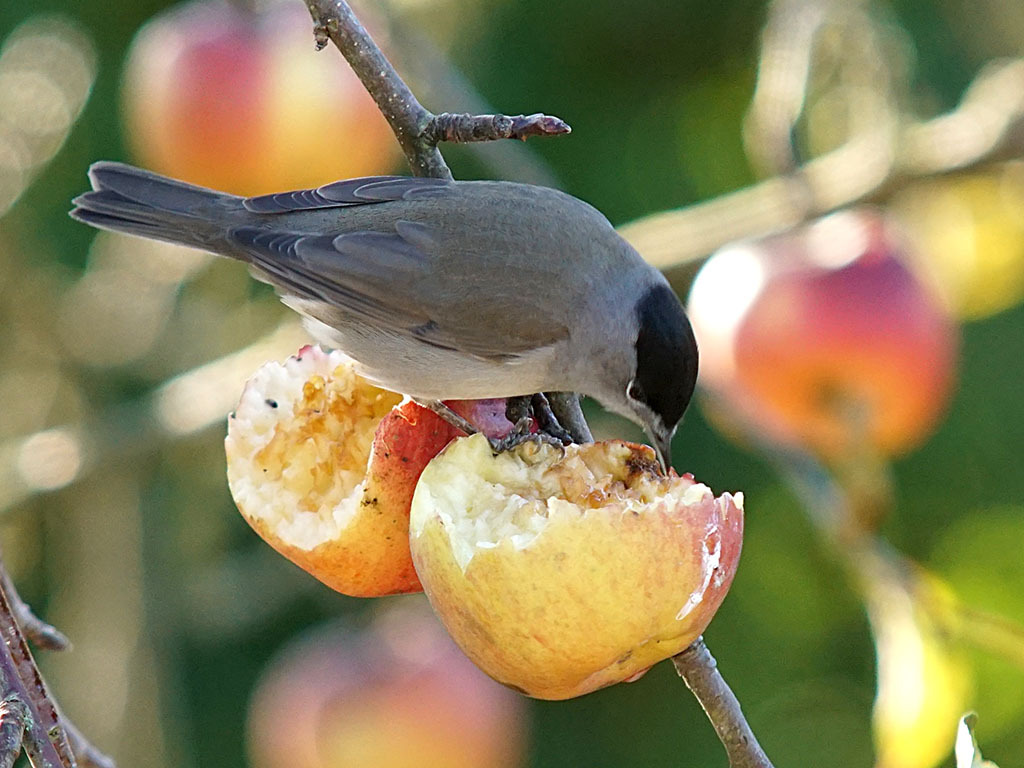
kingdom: Animalia
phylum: Chordata
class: Aves
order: Passeriformes
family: Sylviidae
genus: Sylvia
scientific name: Sylvia atricapilla
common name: Eurasian blackcap
